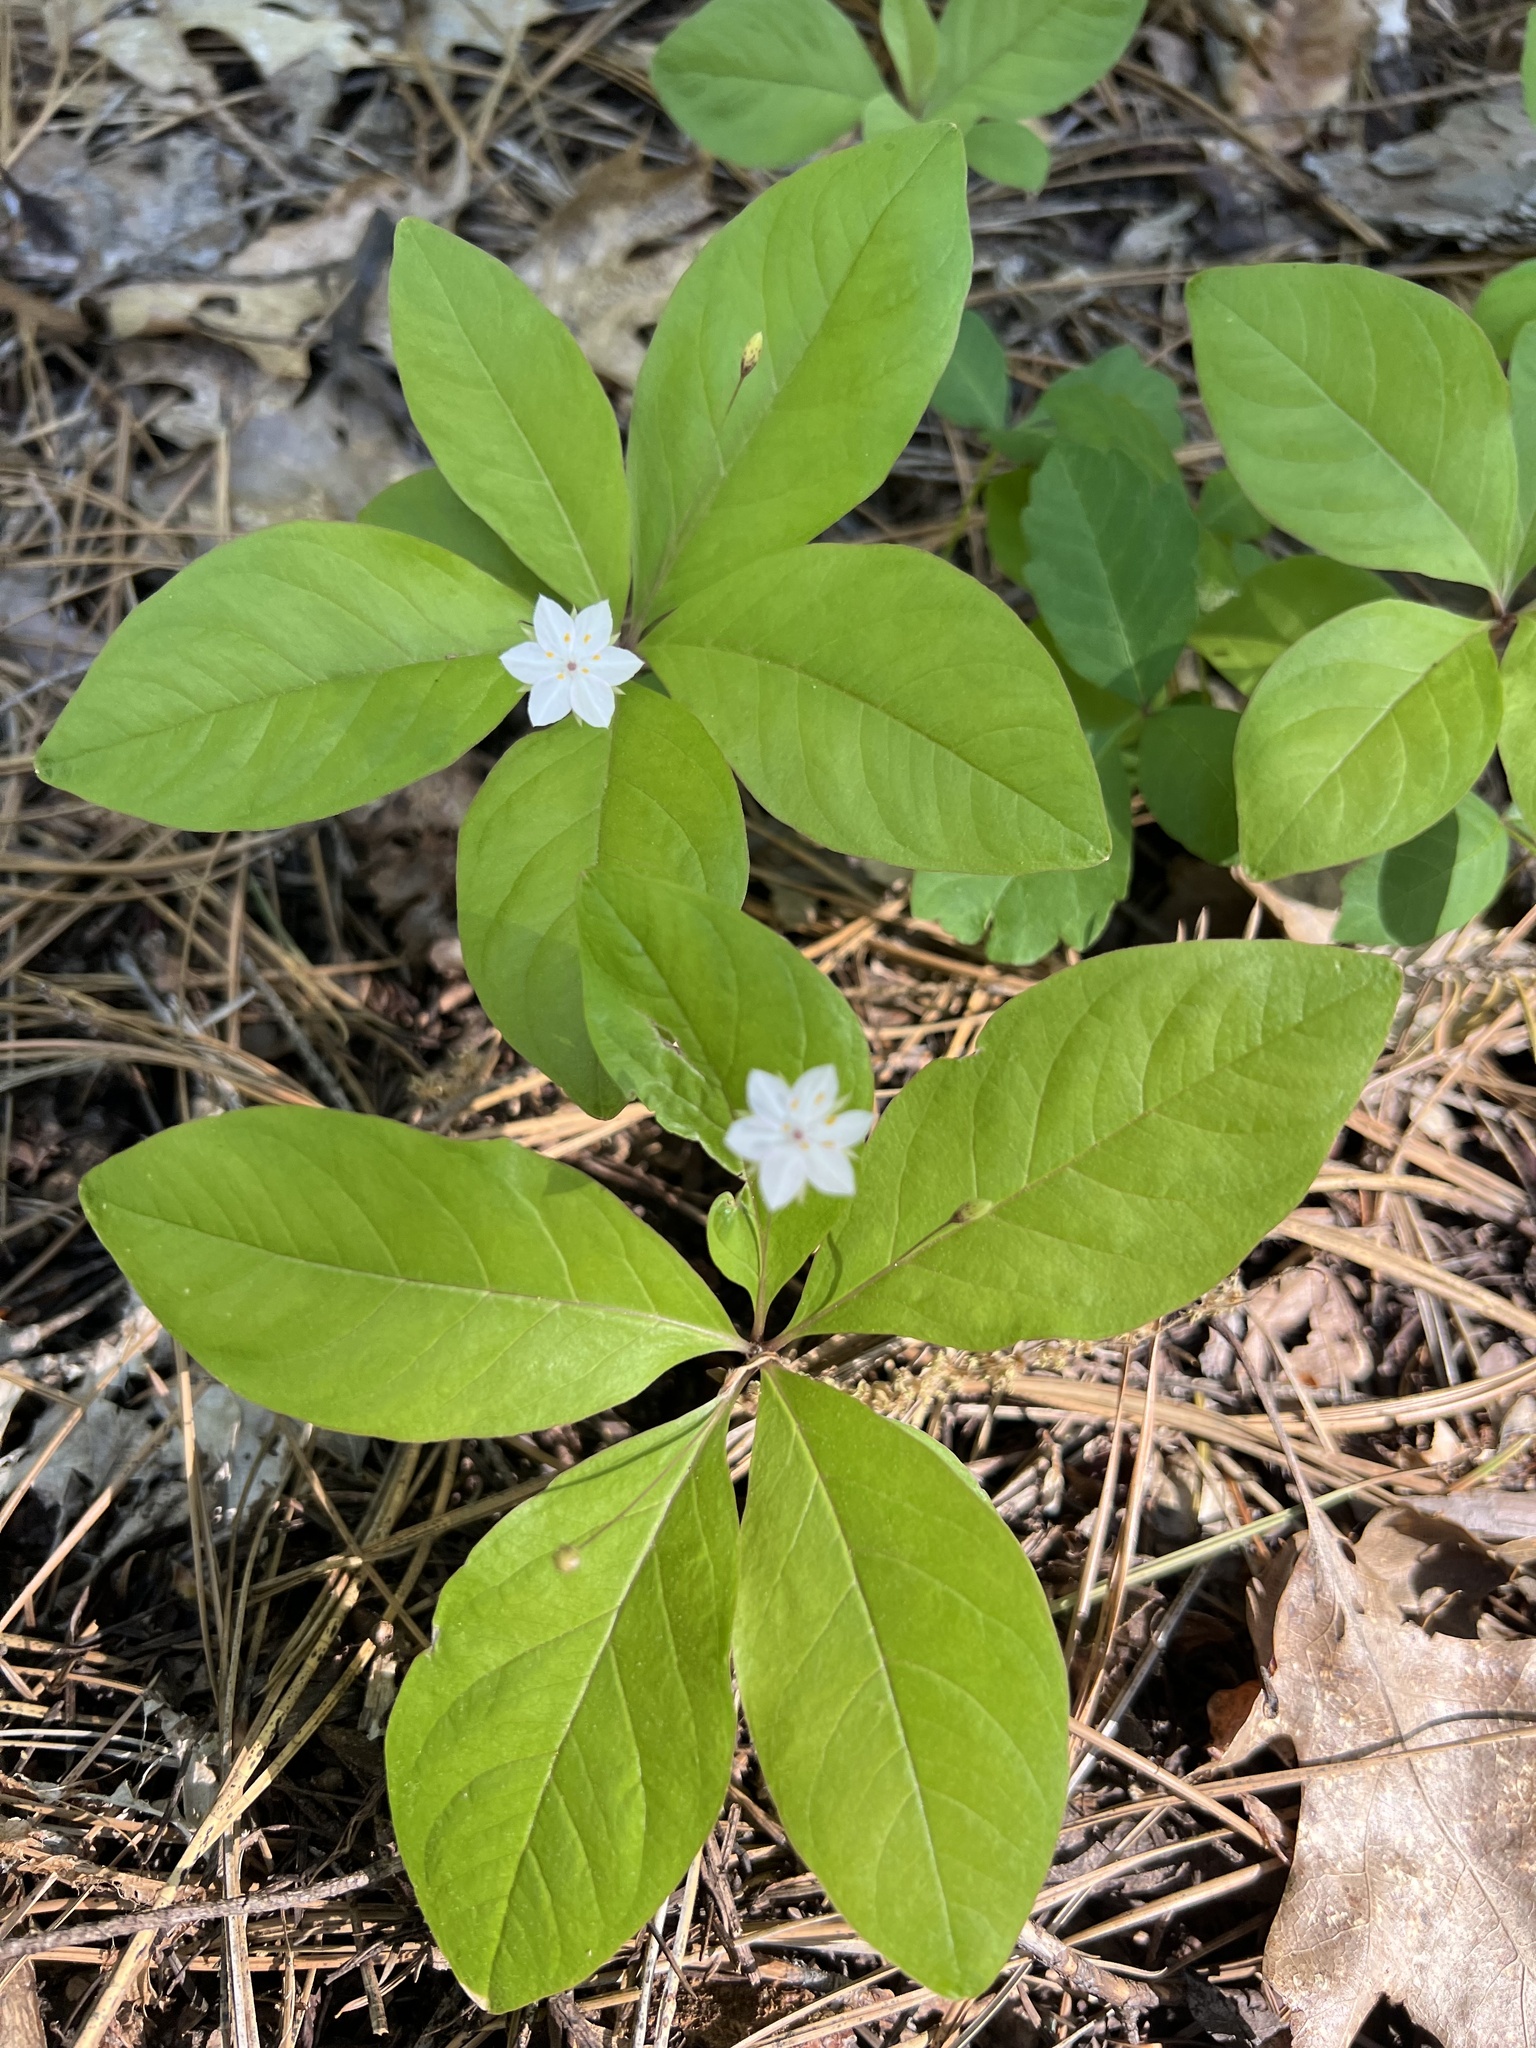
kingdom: Plantae
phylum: Tracheophyta
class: Magnoliopsida
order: Ericales
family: Primulaceae
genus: Lysimachia
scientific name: Lysimachia latifolia
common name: Pacific starflower
